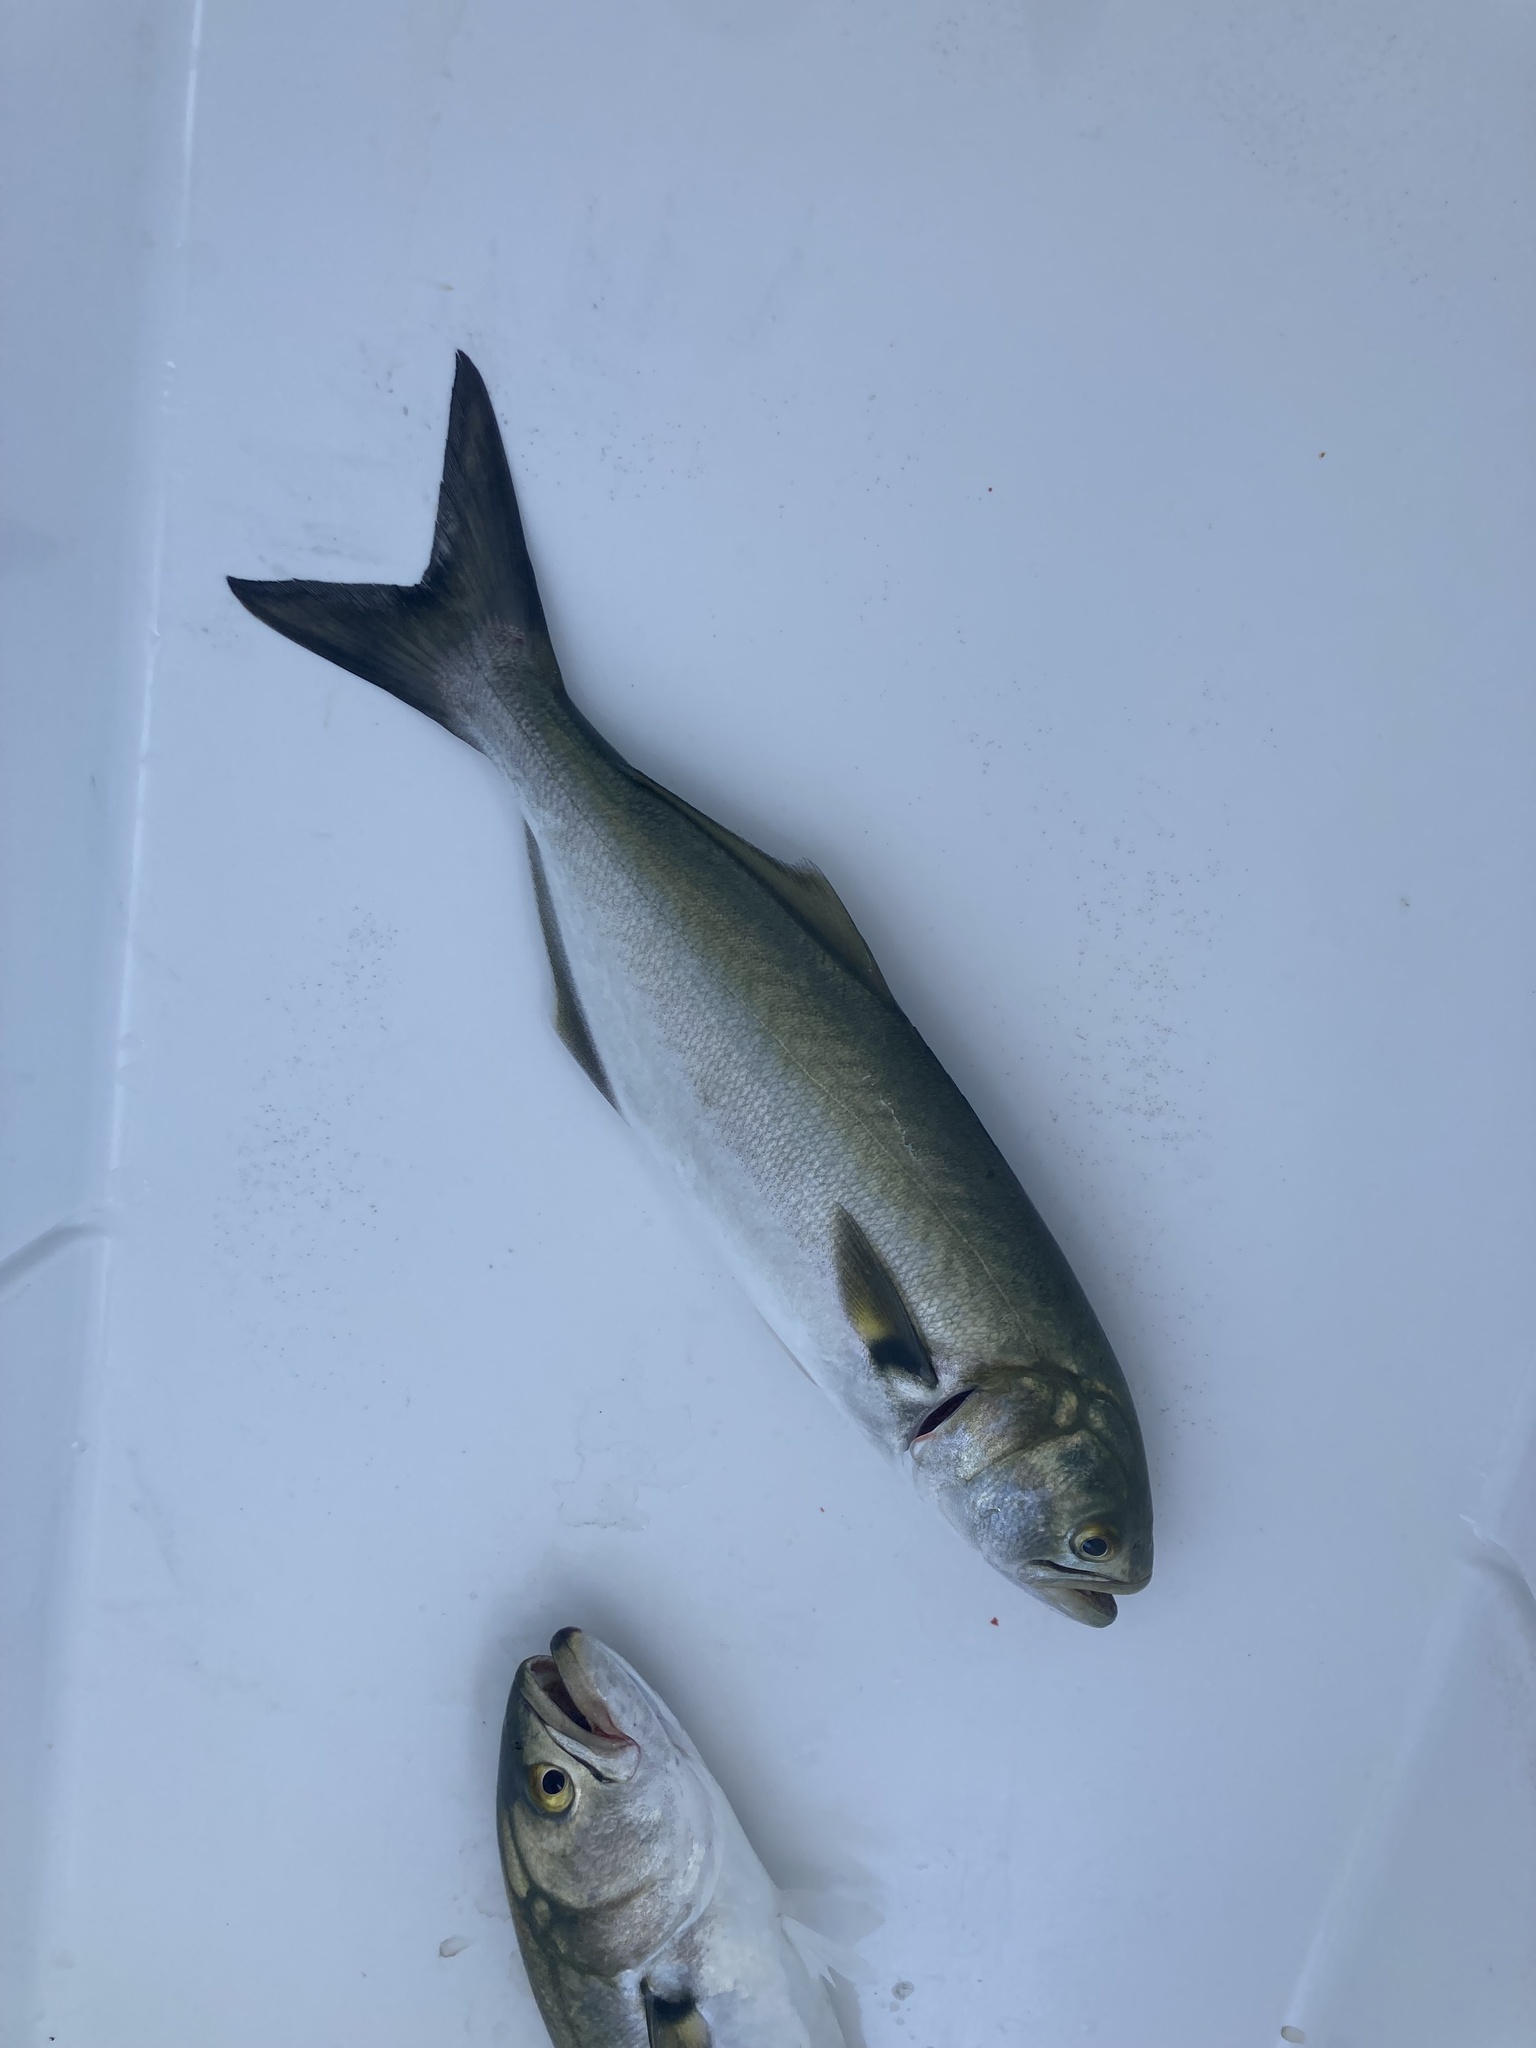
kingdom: Animalia
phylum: Chordata
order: Perciformes
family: Pomatomidae
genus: Pomatomus
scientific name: Pomatomus saltatrix
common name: Bluefish
